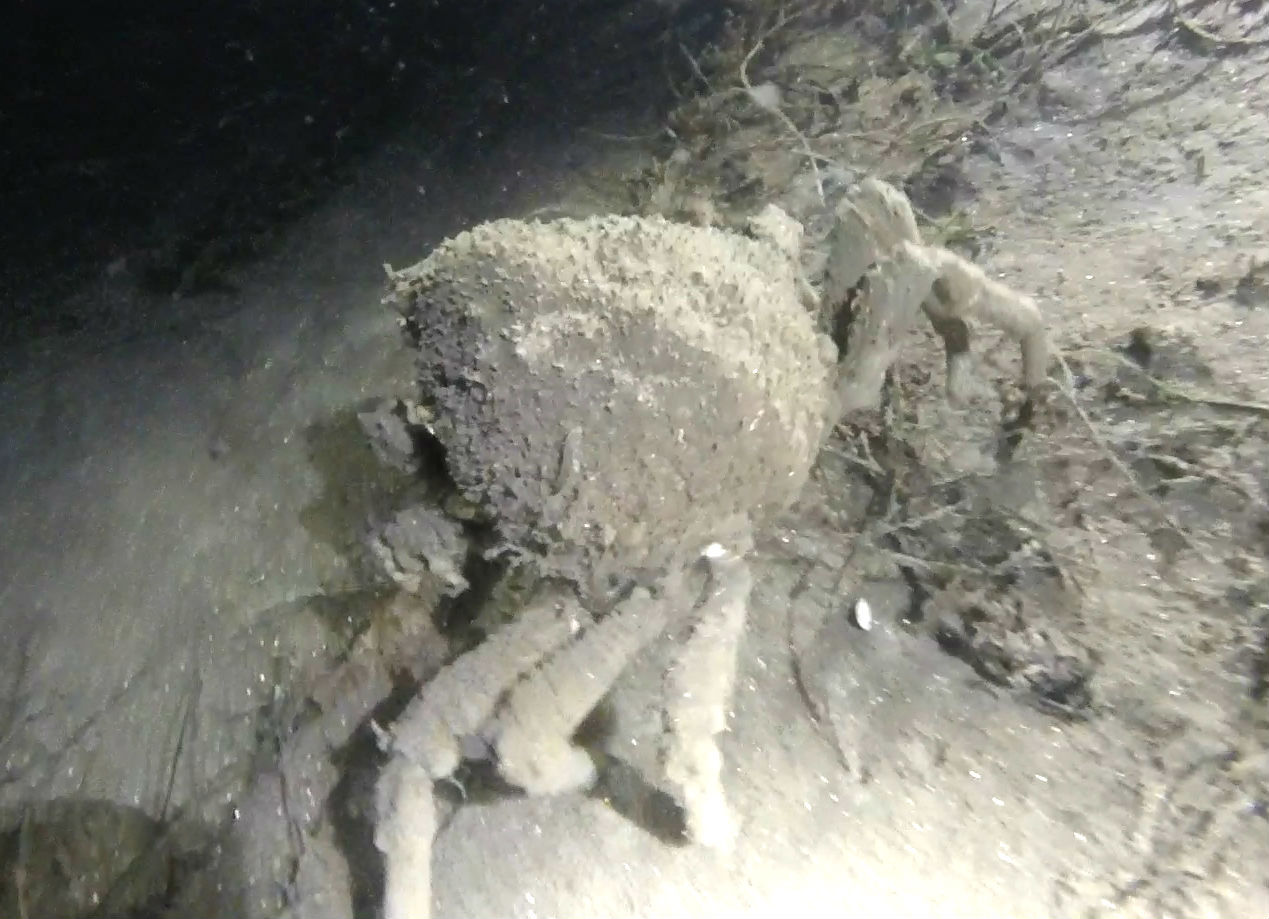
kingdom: Animalia
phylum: Arthropoda
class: Malacostraca
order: Decapoda
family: Epialtidae
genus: Loxorhynchus
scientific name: Loxorhynchus grandis
